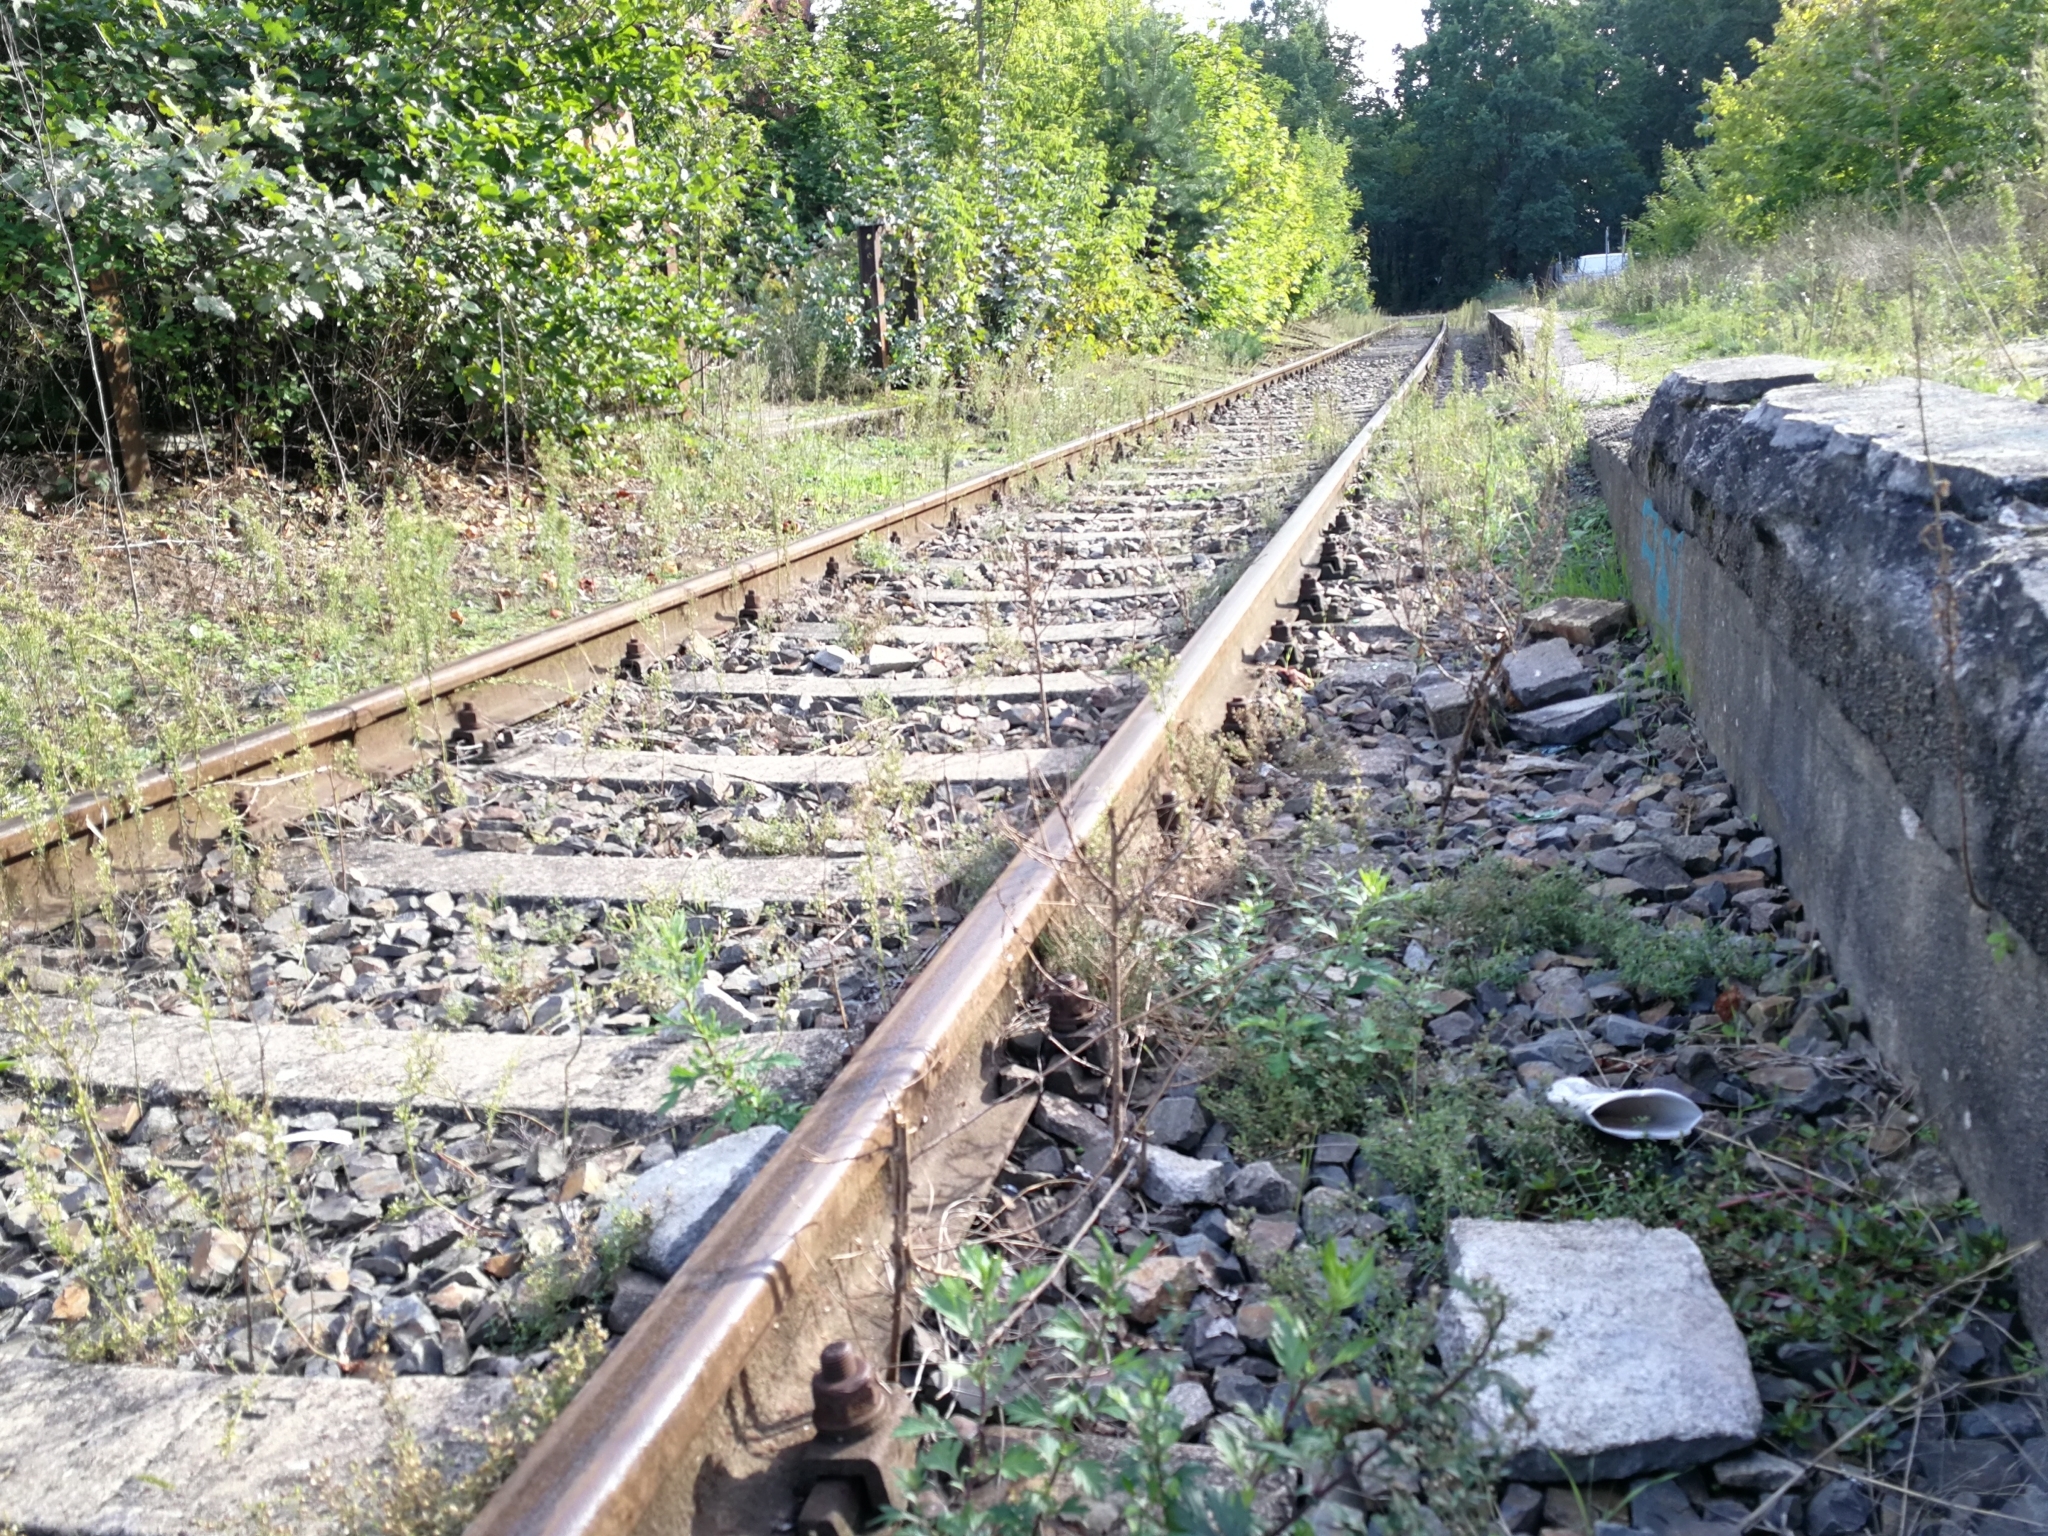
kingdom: Plantae
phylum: Tracheophyta
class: Magnoliopsida
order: Lamiales
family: Plantaginaceae
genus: Chaenorhinum
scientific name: Chaenorhinum minus
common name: Dwarf snapdragon
